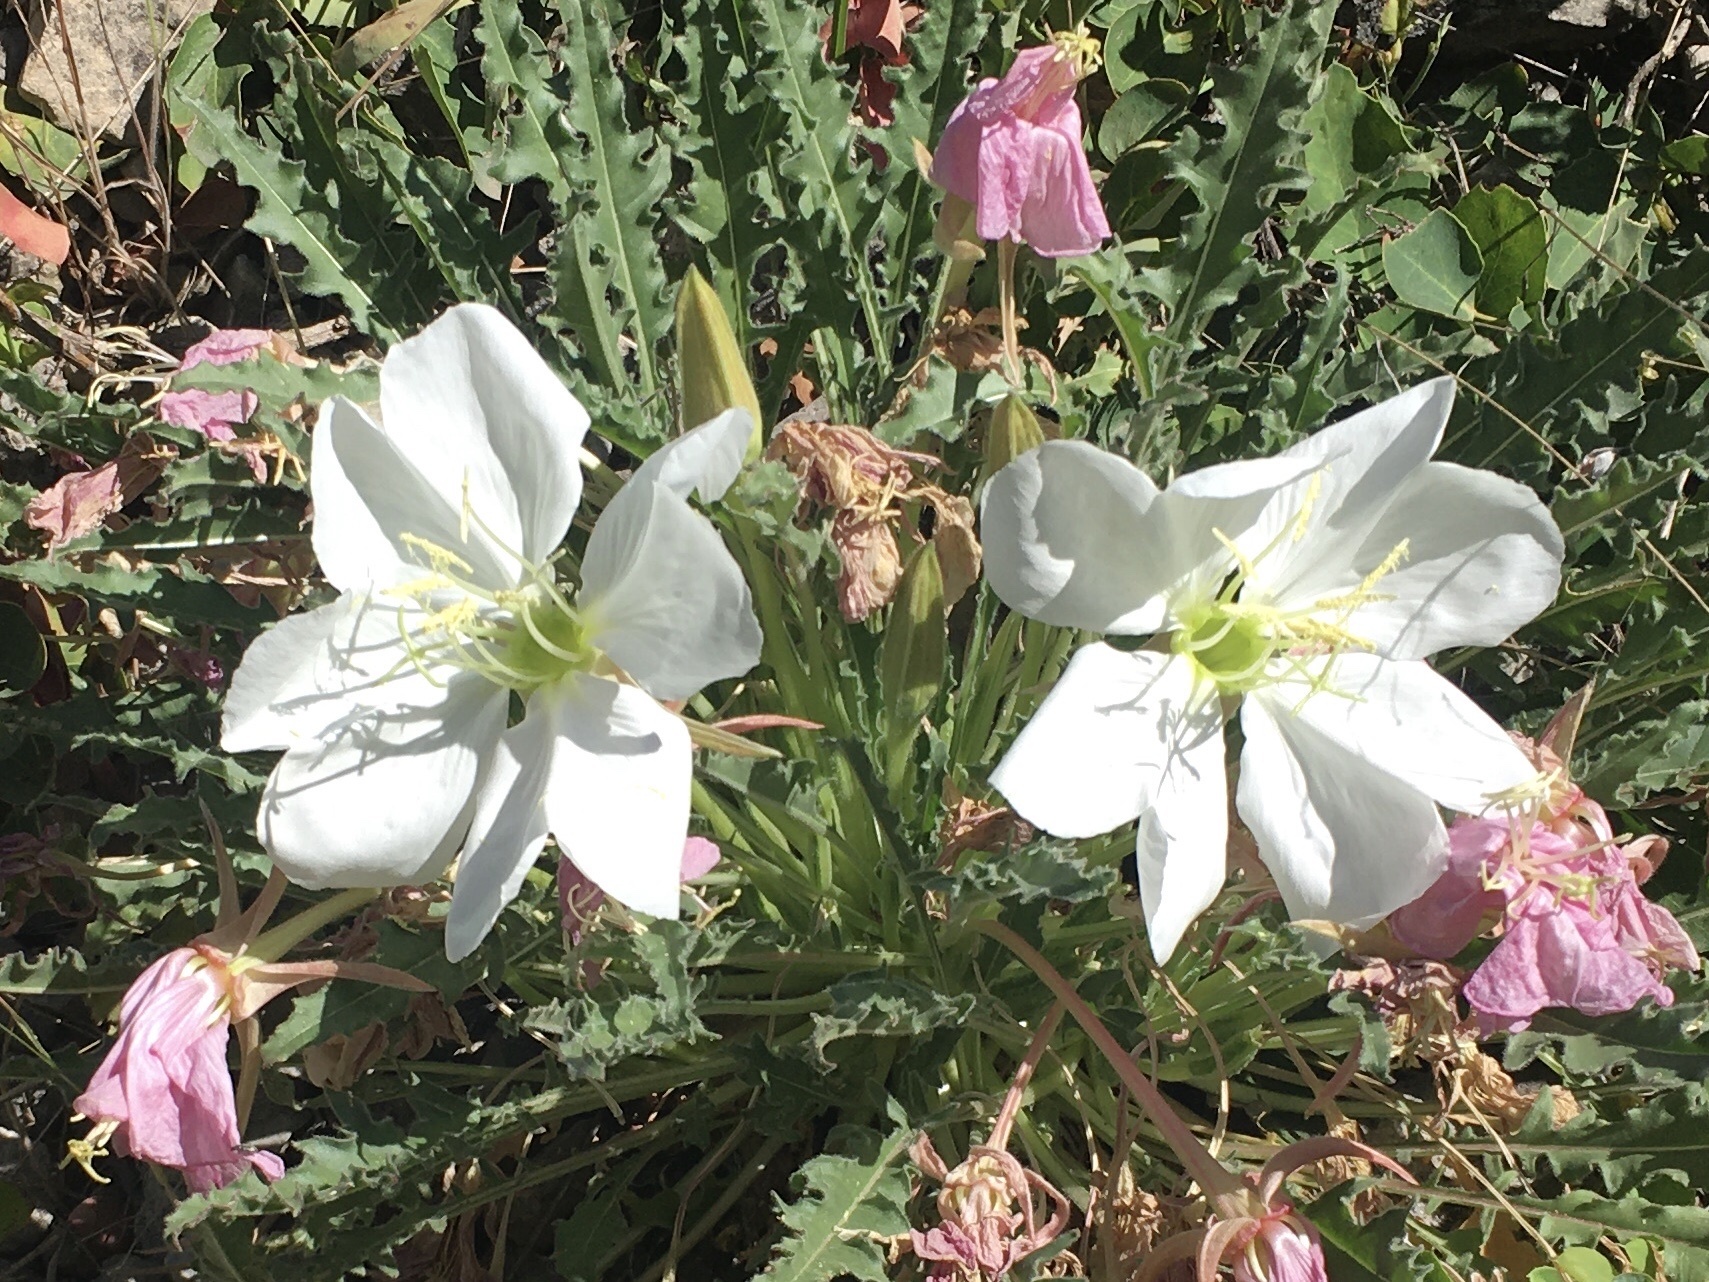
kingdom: Plantae
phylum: Tracheophyta
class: Magnoliopsida
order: Myrtales
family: Onagraceae
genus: Oenothera
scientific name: Oenothera cespitosa
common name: Tufted evening-primrose
